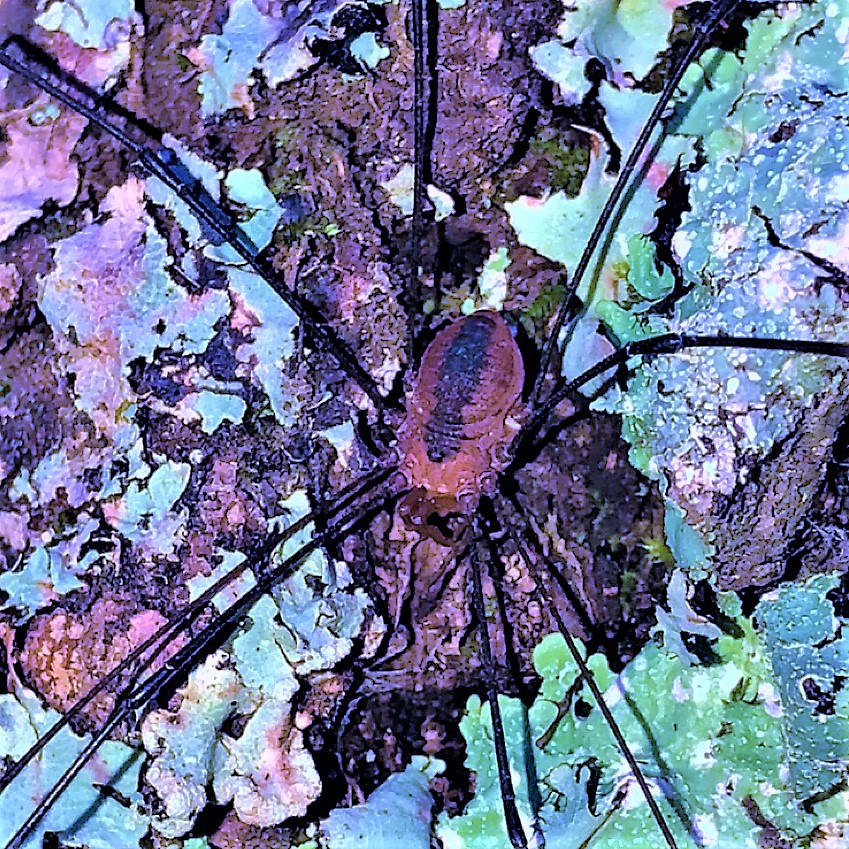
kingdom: Animalia
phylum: Arthropoda
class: Arachnida
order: Opiliones
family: Sclerosomatidae
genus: Leiobunum
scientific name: Leiobunum vittatum
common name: Eastern harvestman
